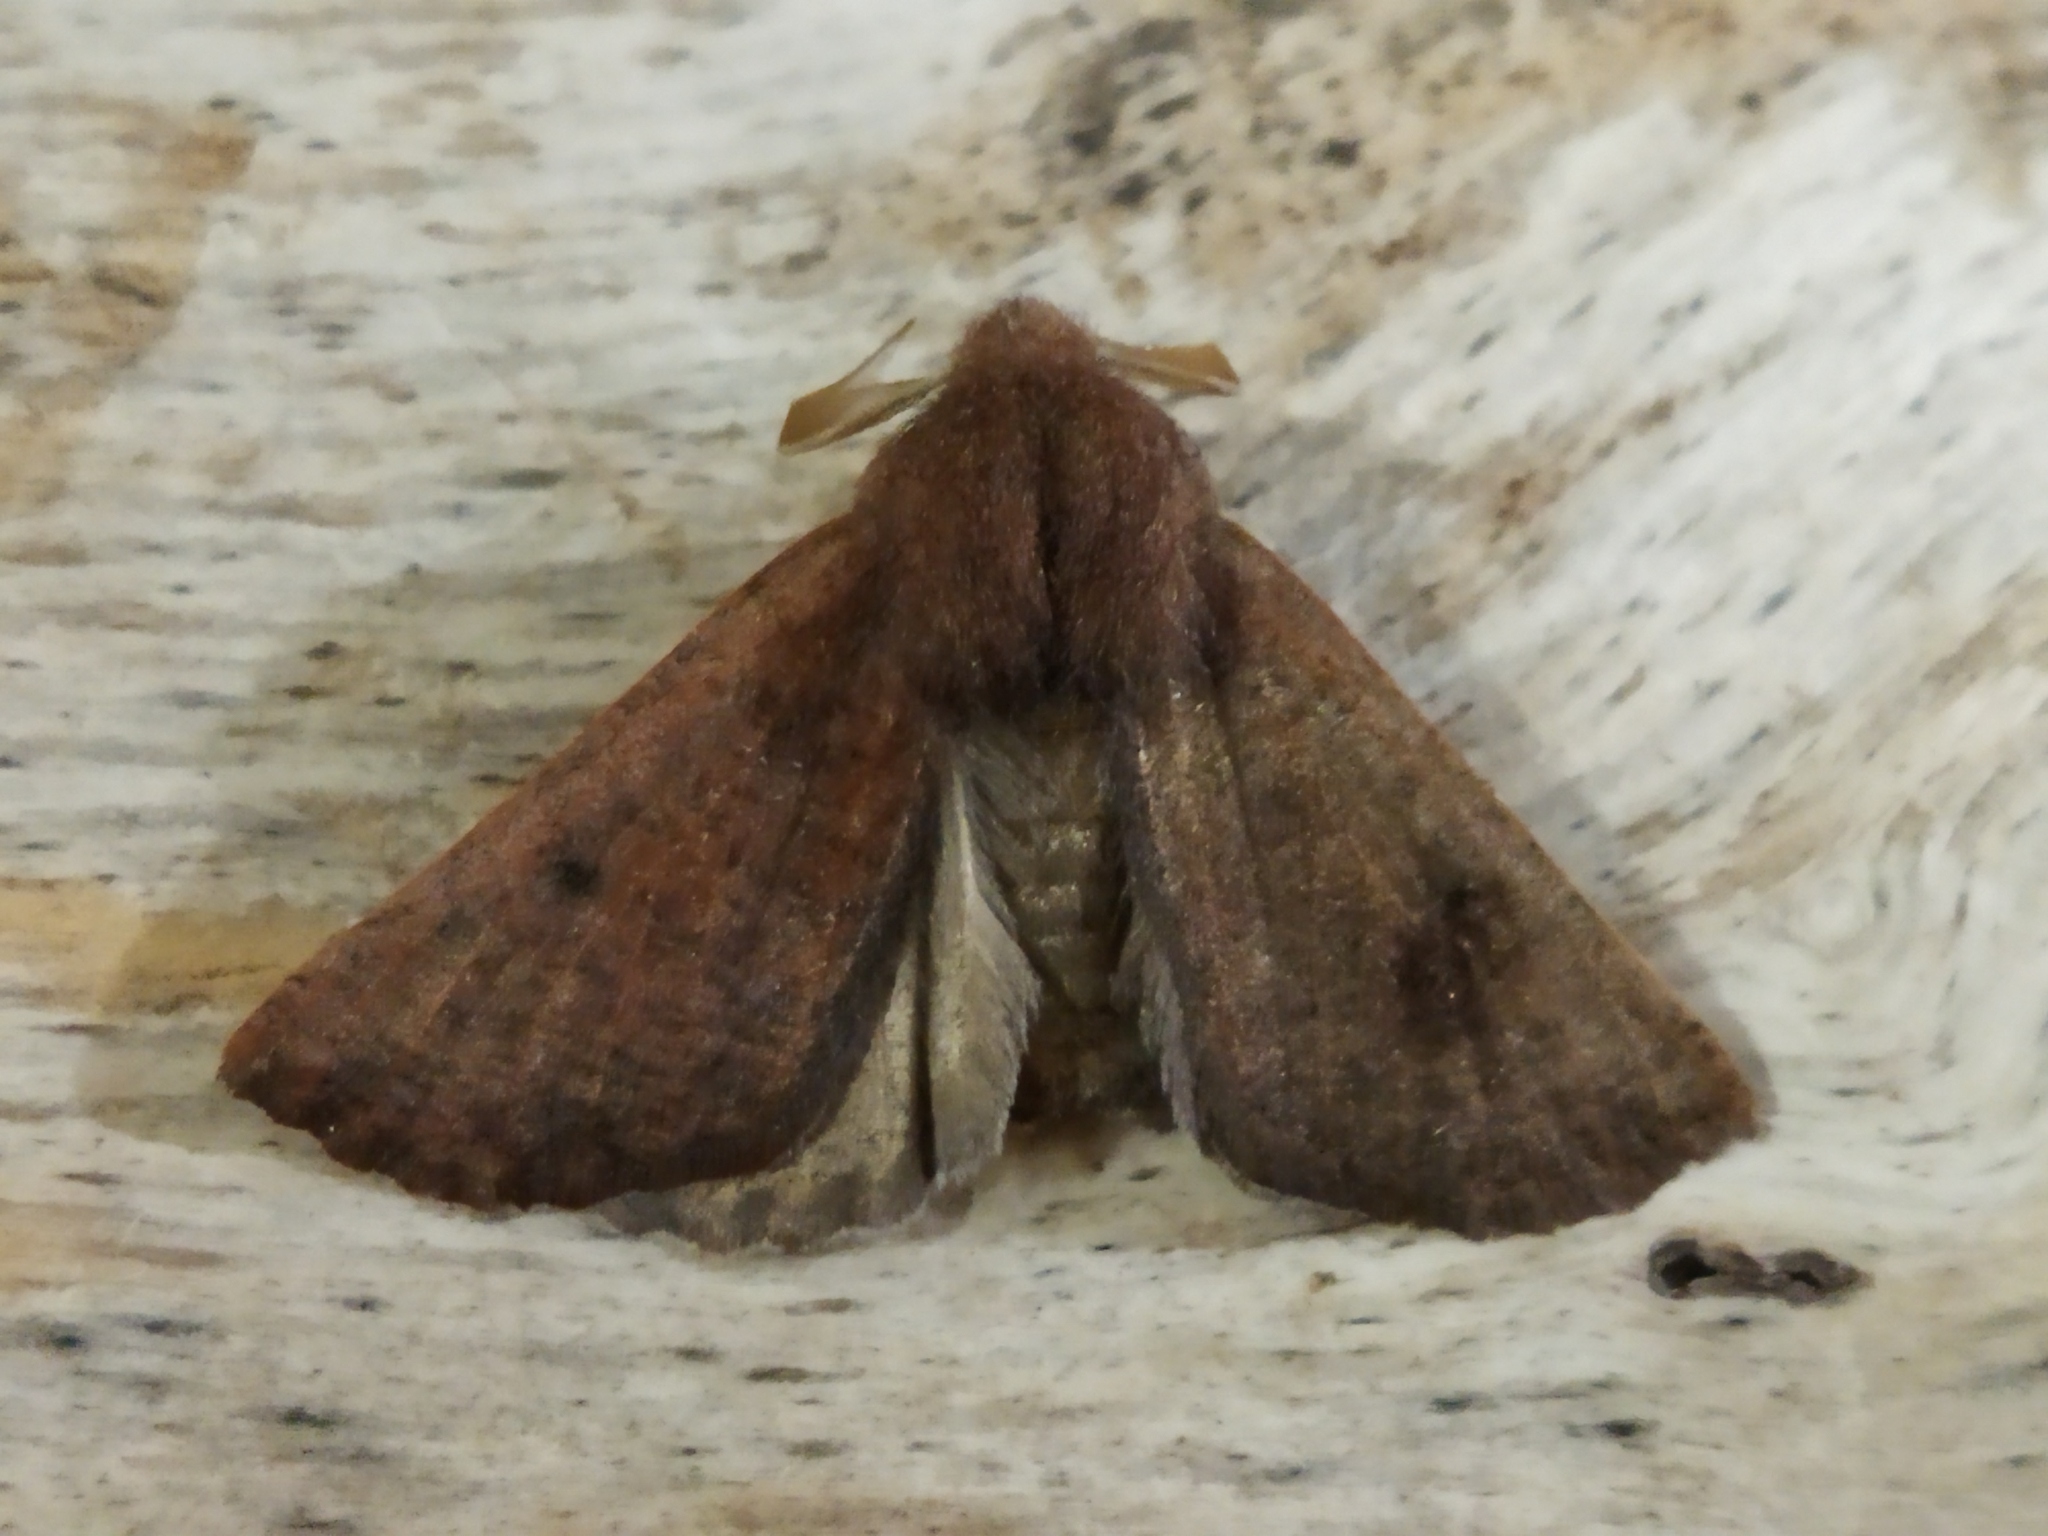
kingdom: Animalia
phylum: Arthropoda
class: Insecta
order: Lepidoptera
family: Geometridae
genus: Dasycorsa
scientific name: Dasycorsa modesta
